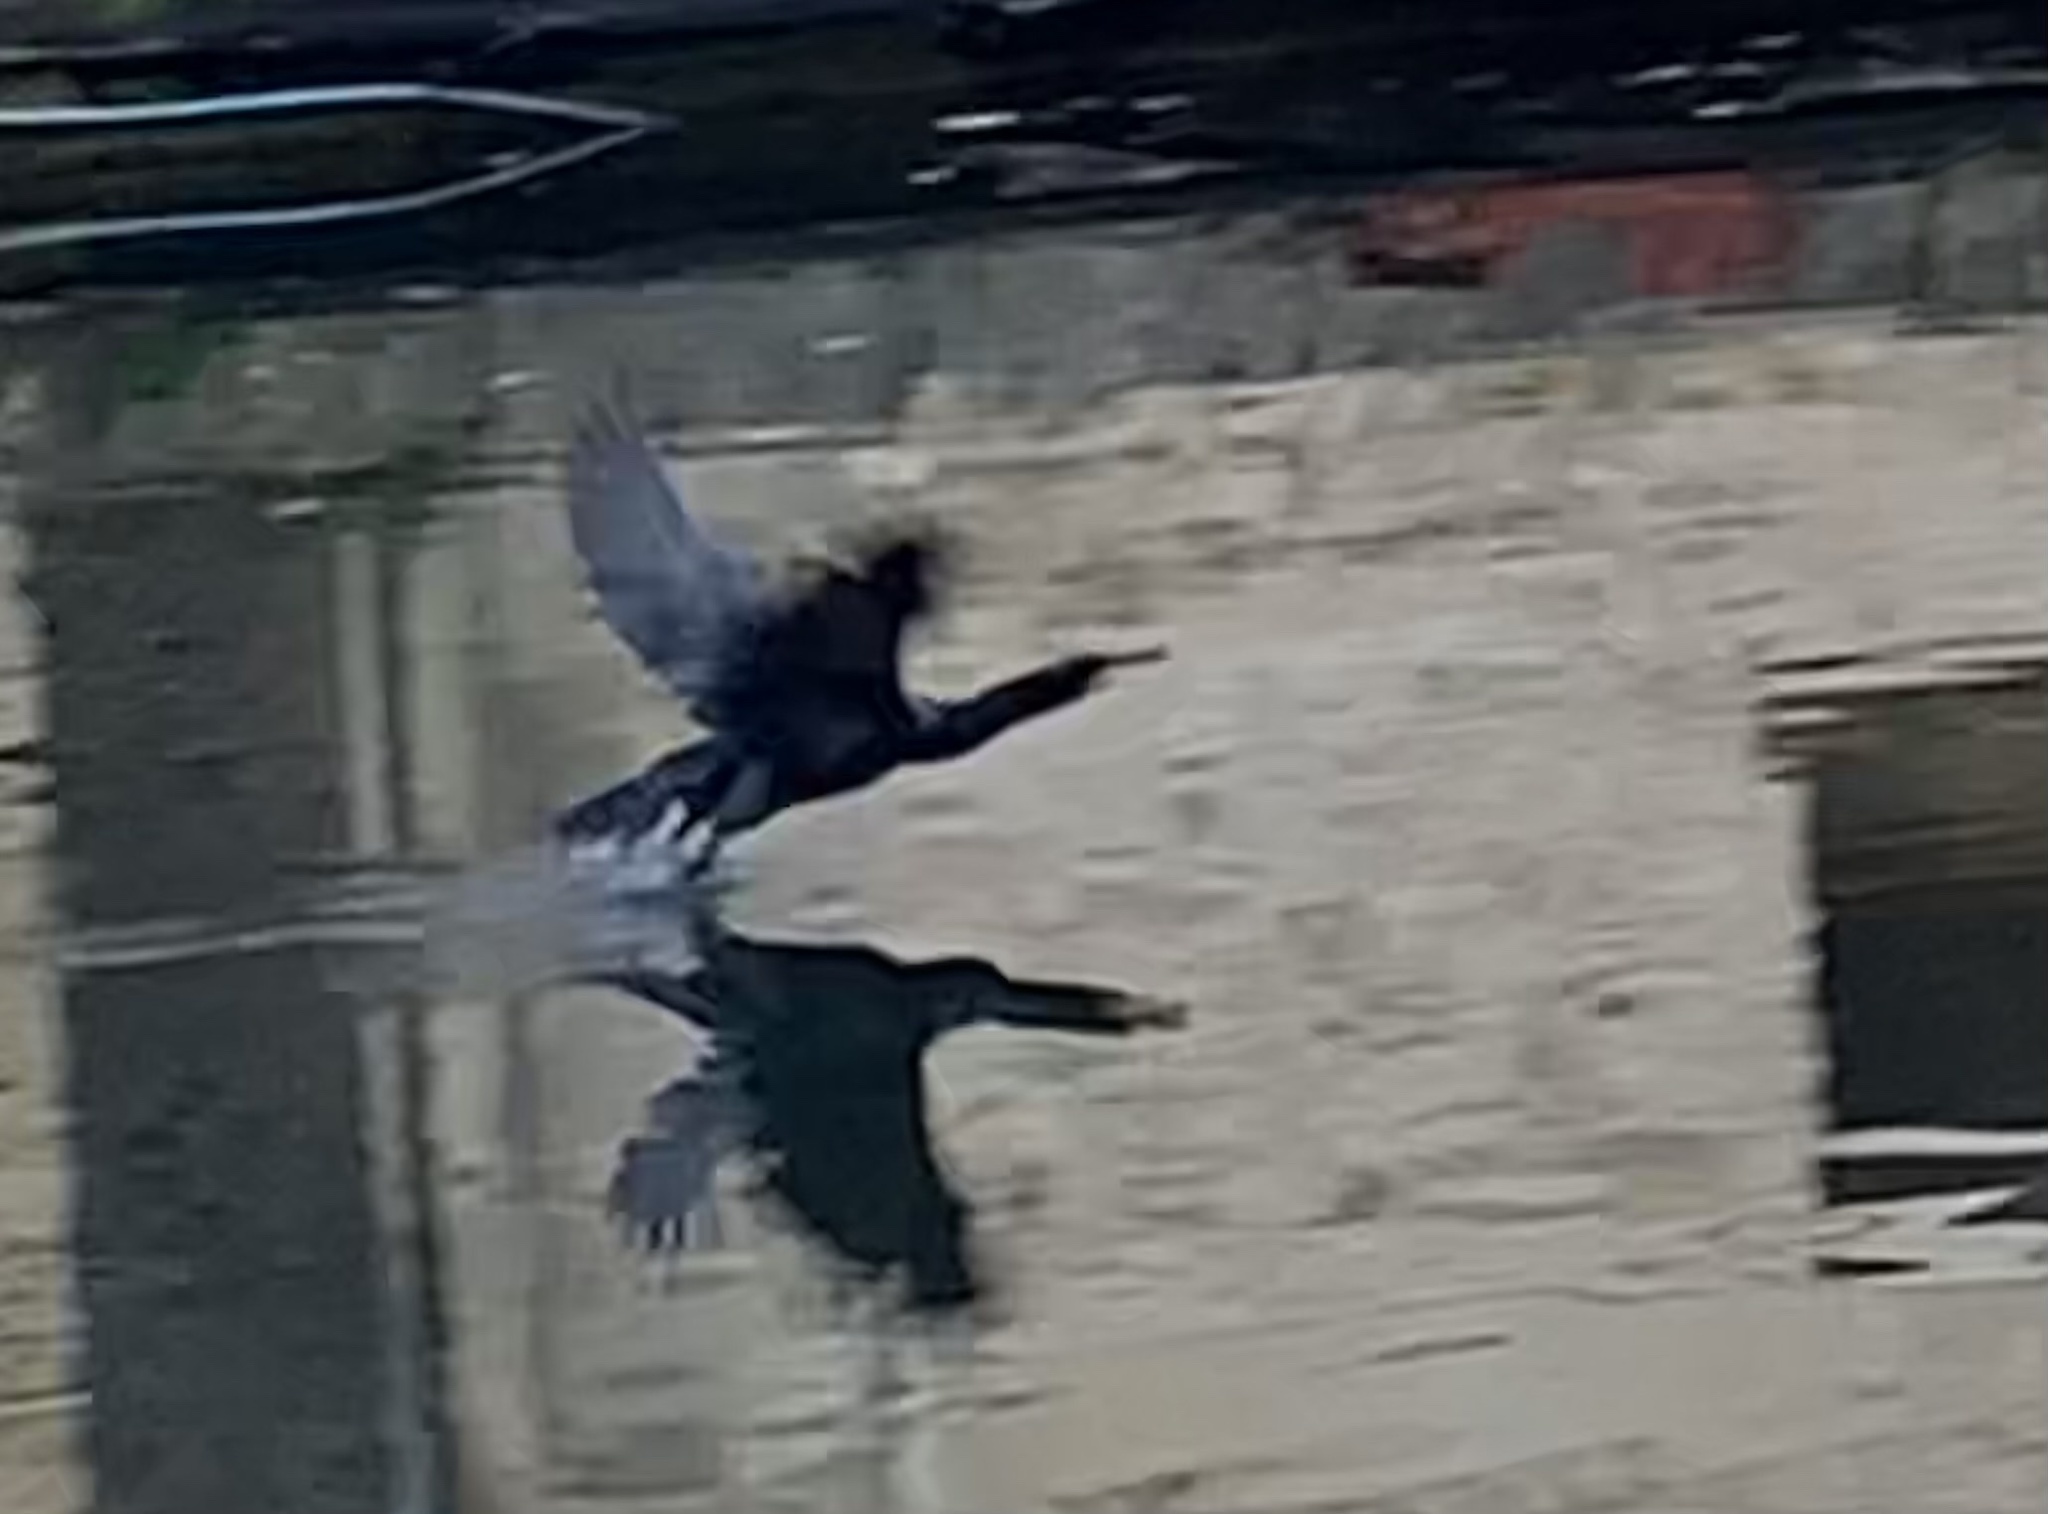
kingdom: Animalia
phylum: Chordata
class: Aves
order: Suliformes
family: Phalacrocoracidae
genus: Phalacrocorax
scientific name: Phalacrocorax carbo
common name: Great cormorant
